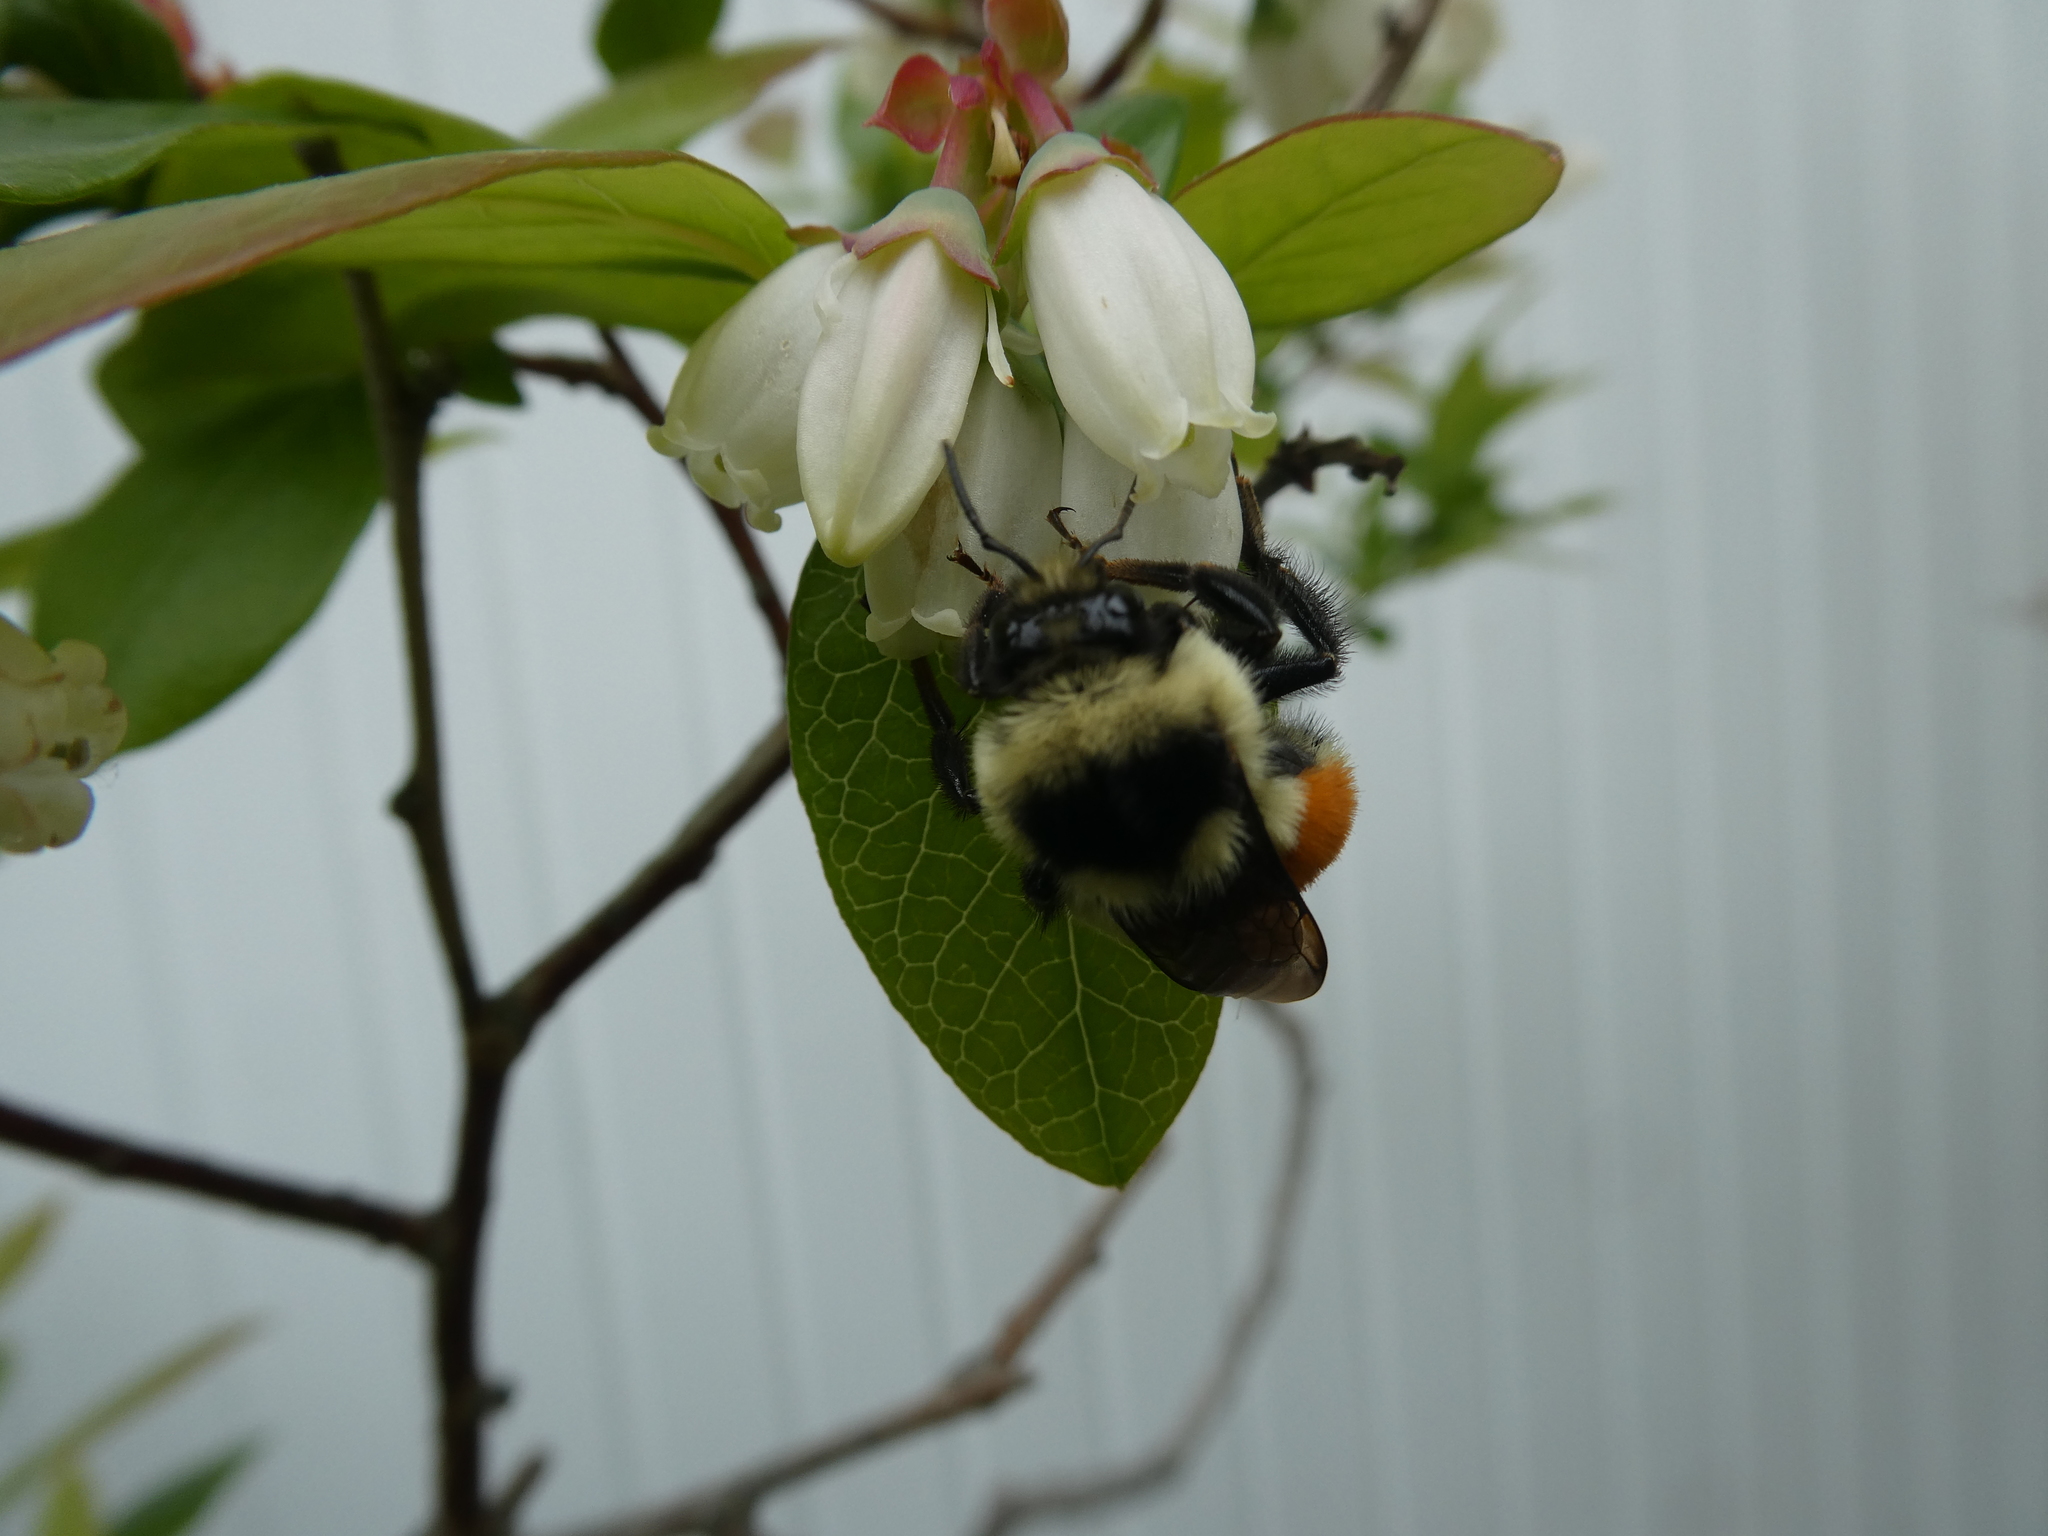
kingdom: Animalia
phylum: Arthropoda
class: Insecta
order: Hymenoptera
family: Apidae
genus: Bombus
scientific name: Bombus ternarius
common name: Tri-colored bumble bee
